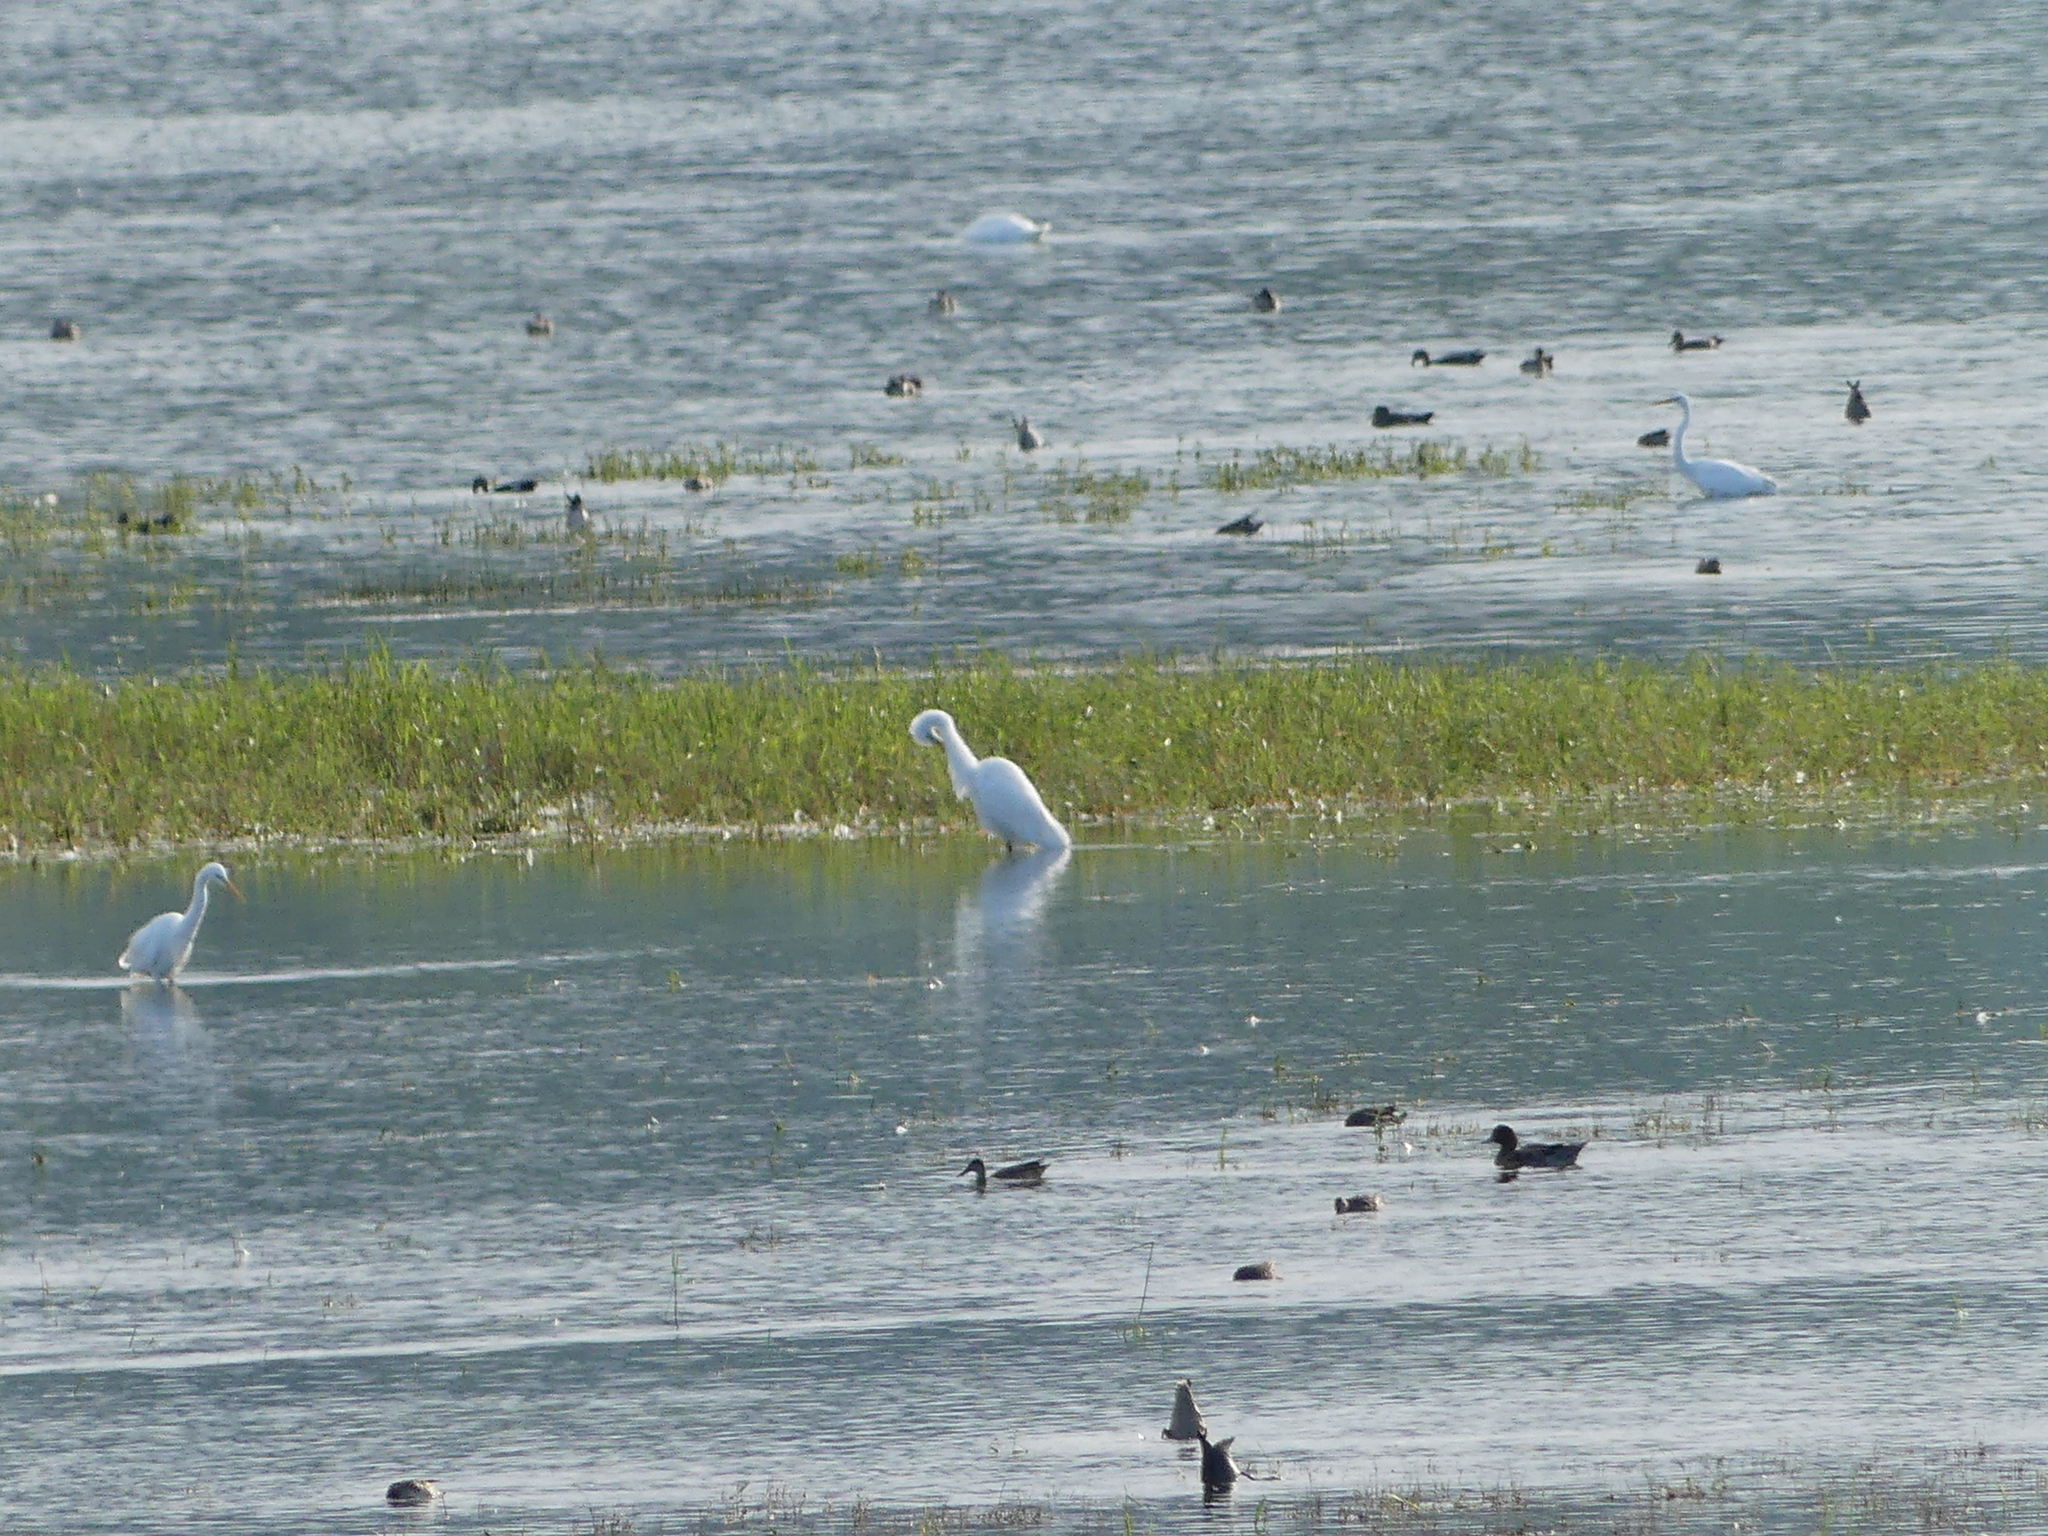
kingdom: Animalia
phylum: Chordata
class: Aves
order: Pelecaniformes
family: Ardeidae
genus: Ardea
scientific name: Ardea alba
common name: Great egret
